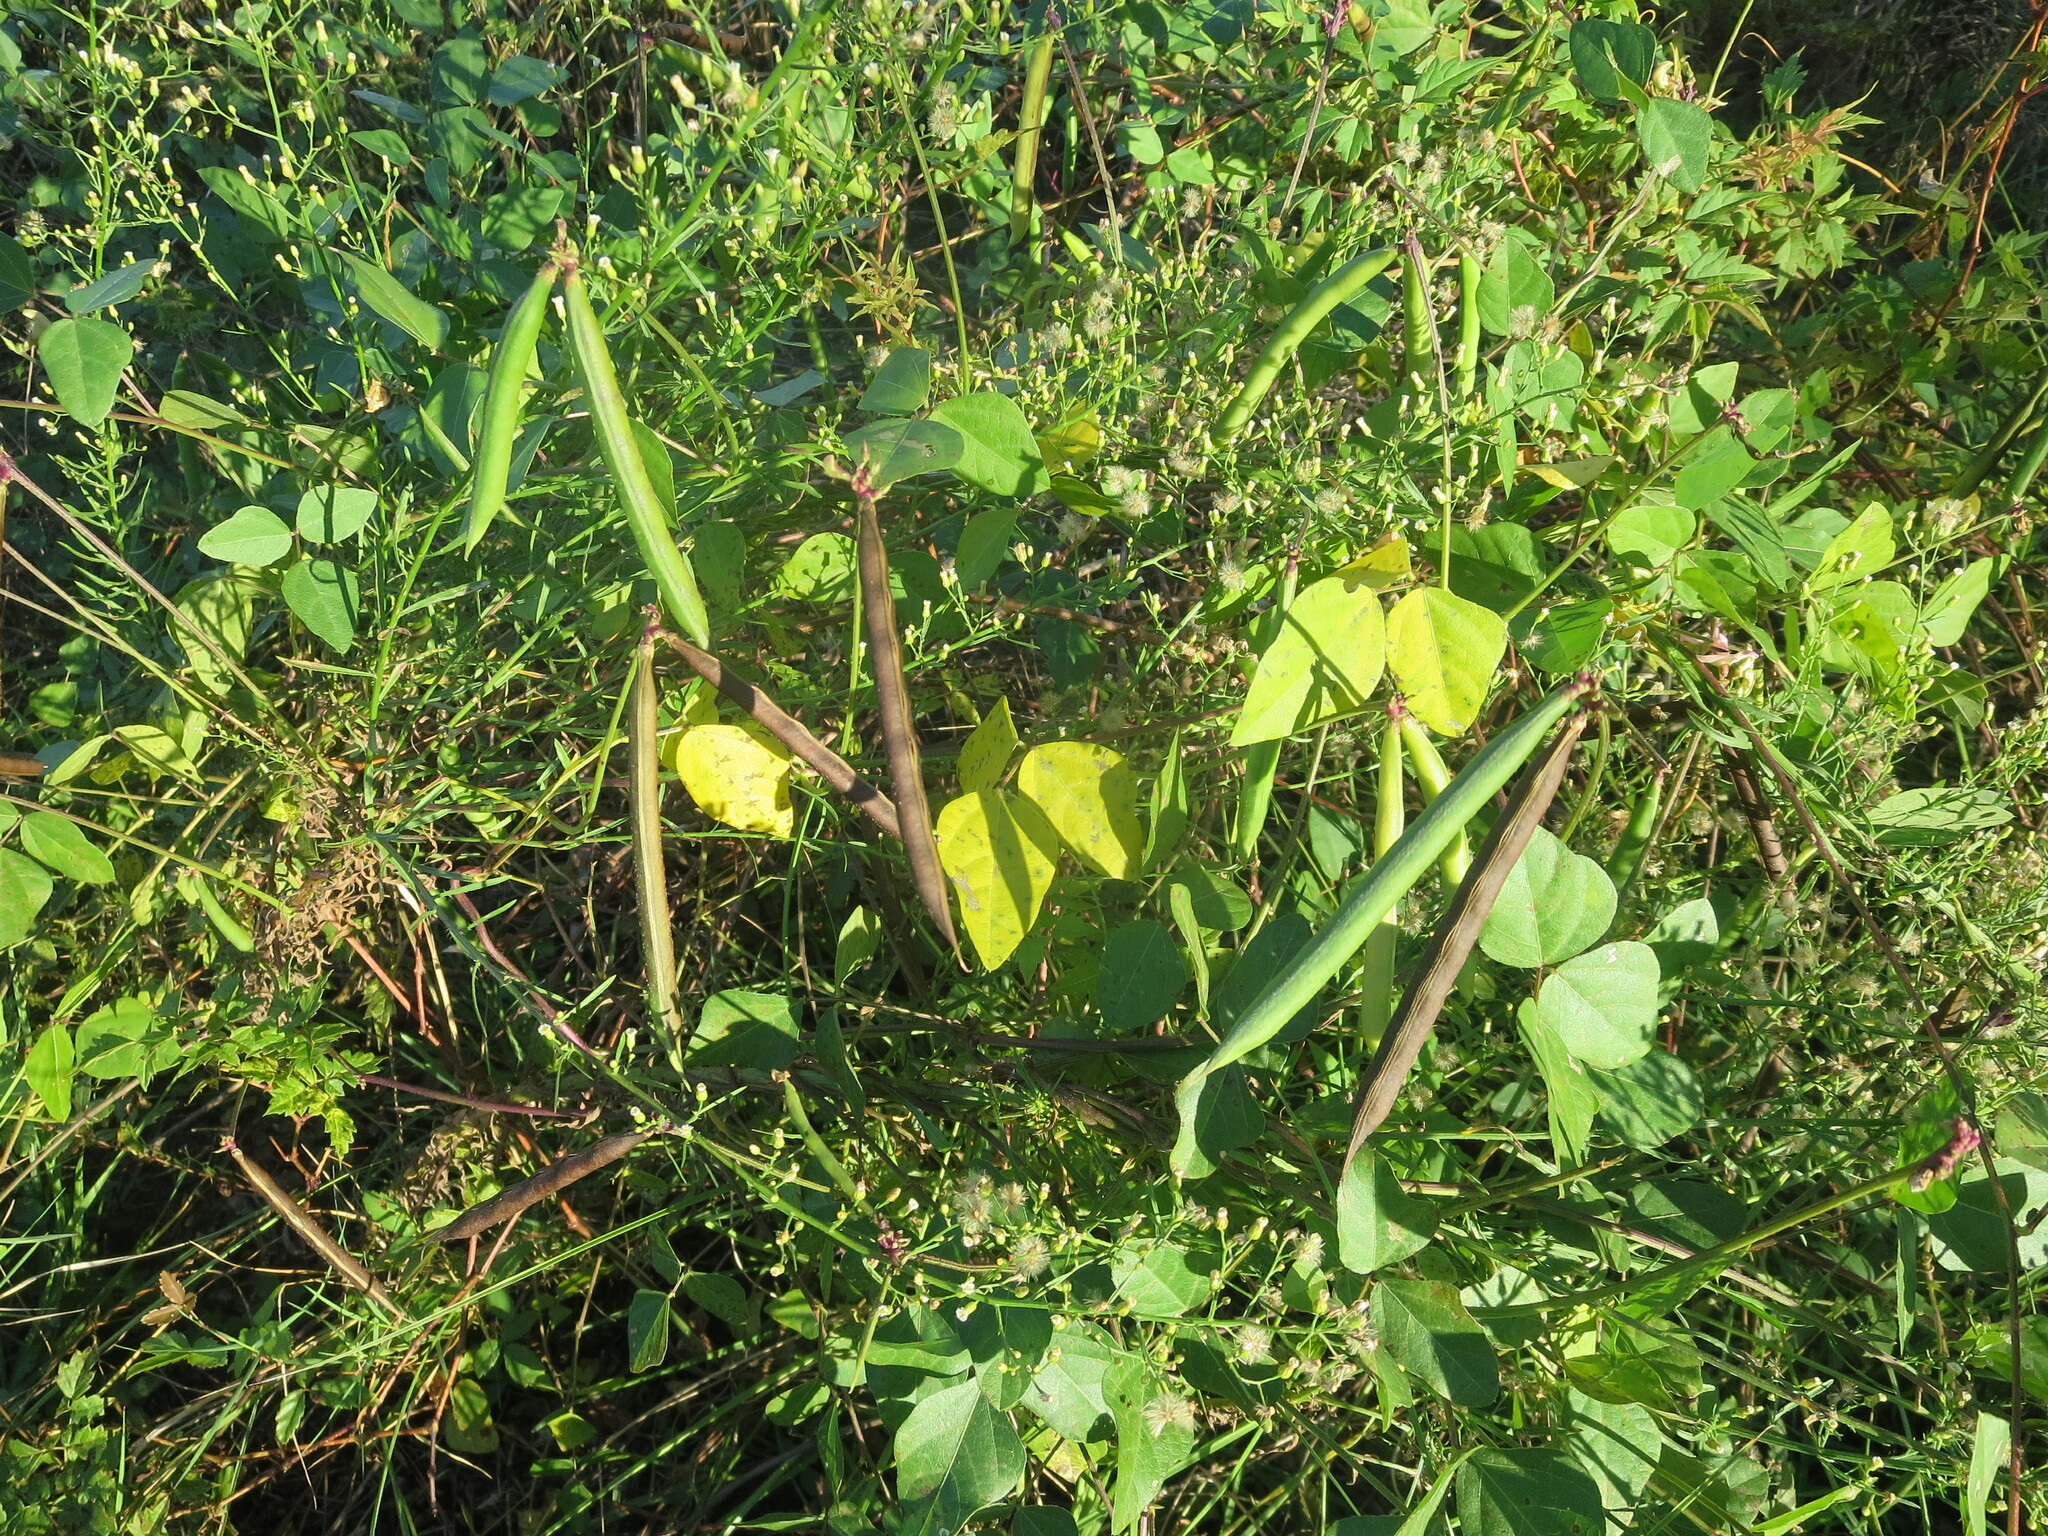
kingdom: Plantae
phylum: Tracheophyta
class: Magnoliopsida
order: Fabales
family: Fabaceae
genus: Strophostyles
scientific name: Strophostyles helvola
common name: Trailing wild bean
